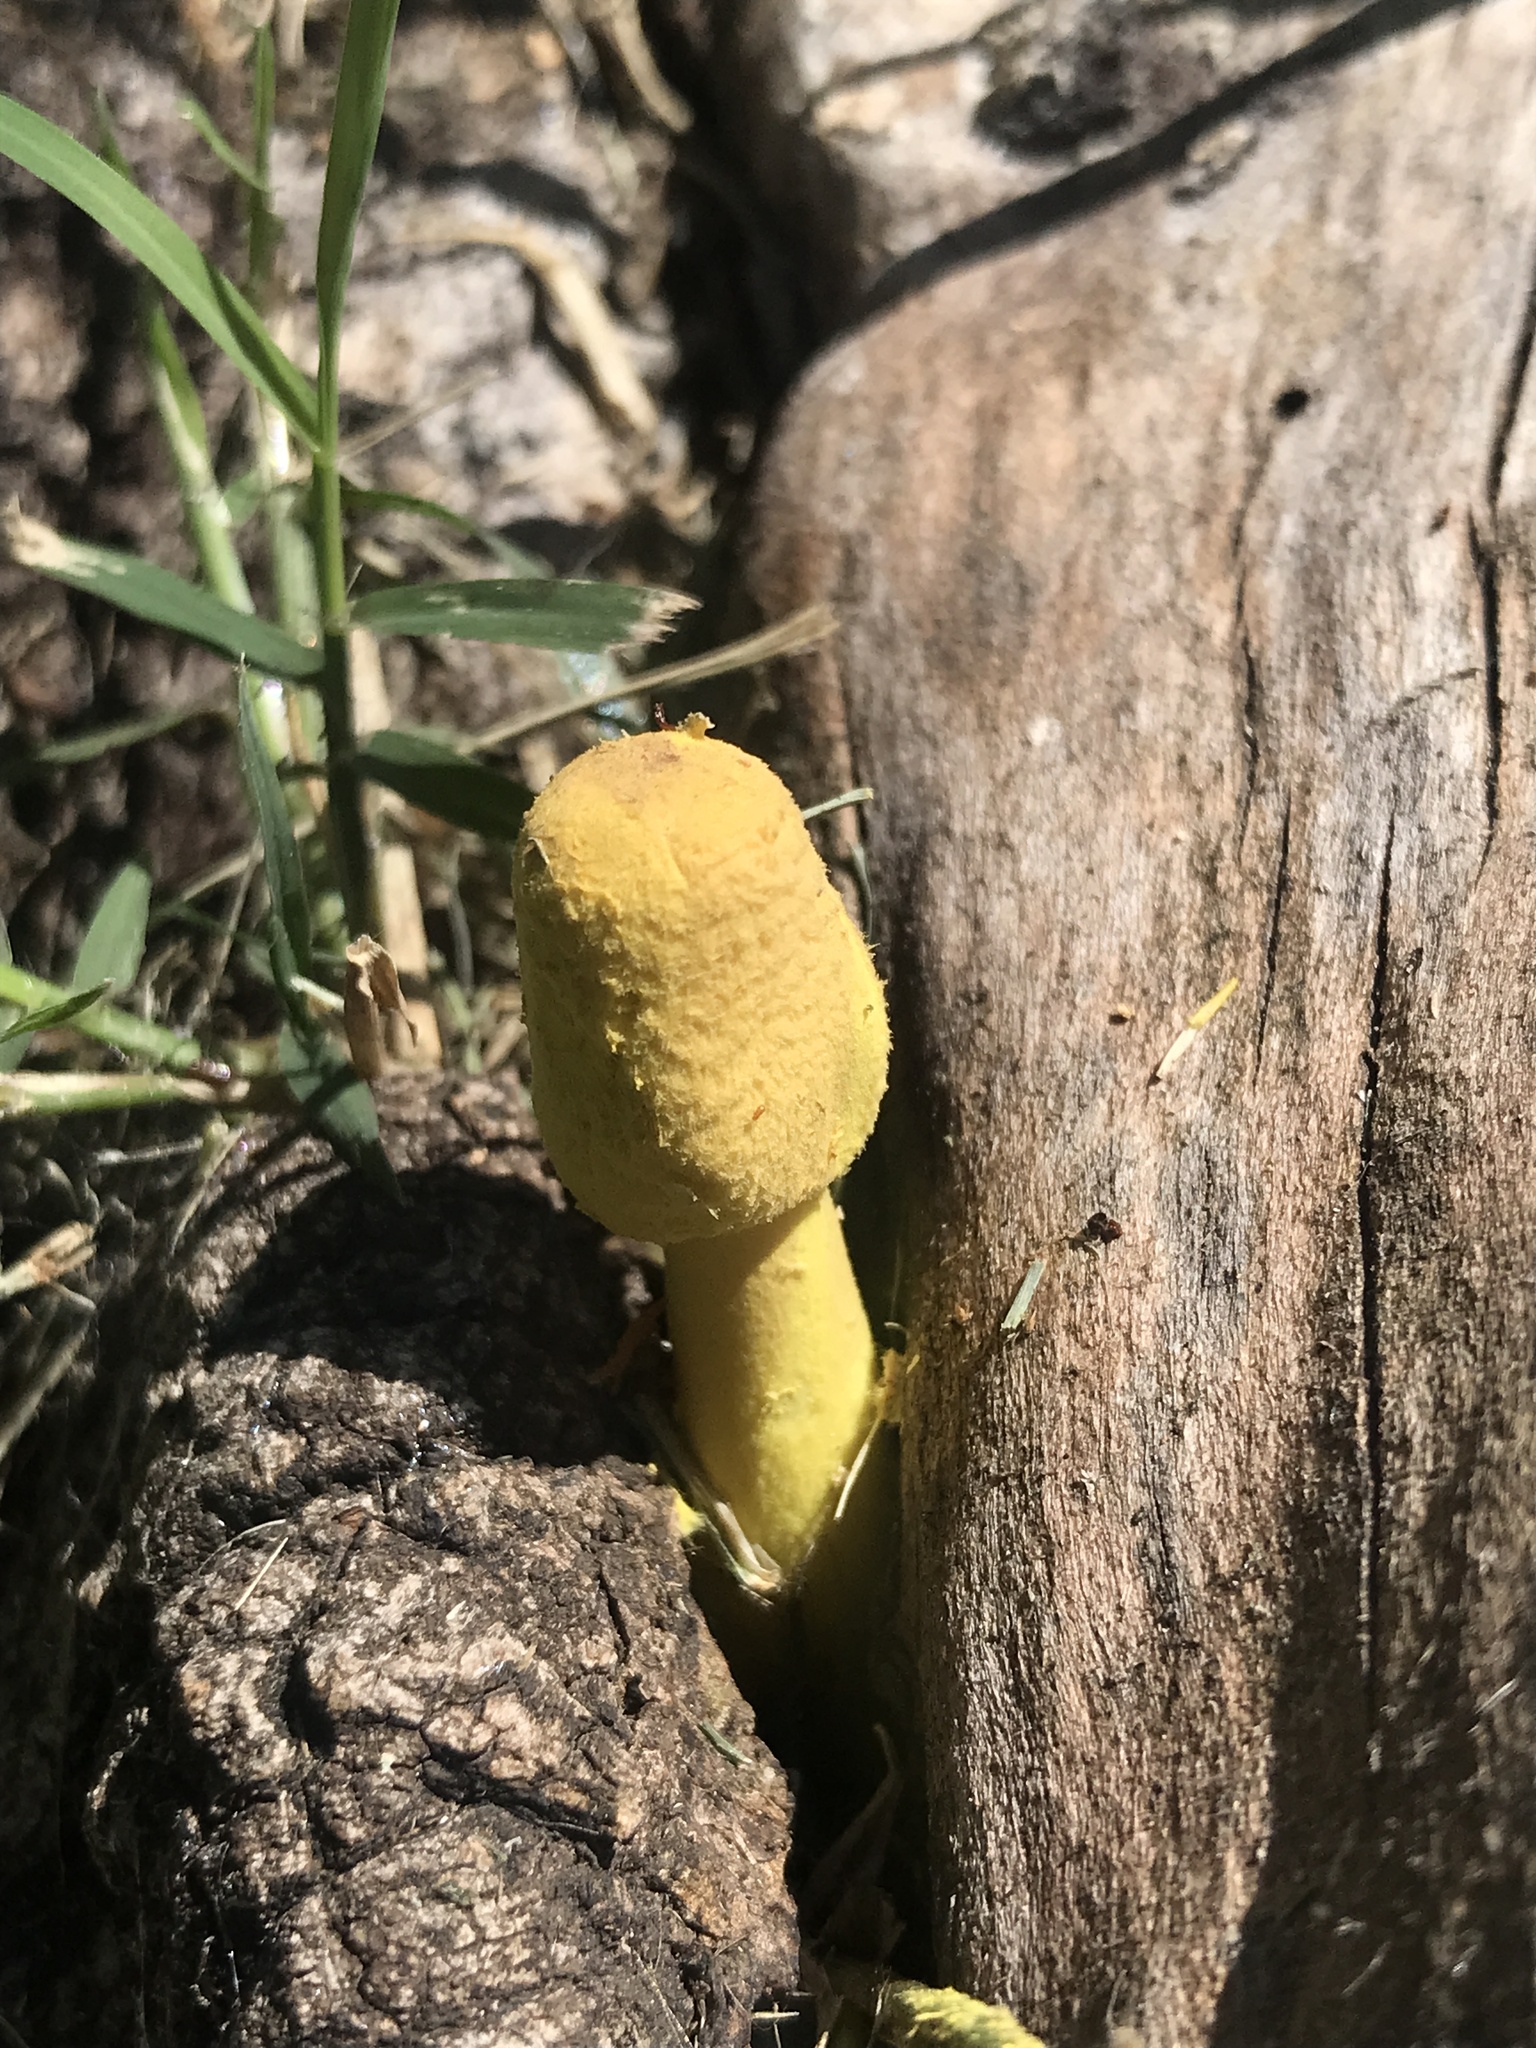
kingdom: Fungi
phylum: Basidiomycota
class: Agaricomycetes
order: Agaricales
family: Agaricaceae
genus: Leucocoprinus
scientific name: Leucocoprinus birnbaumii
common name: Plantpot dapperling
